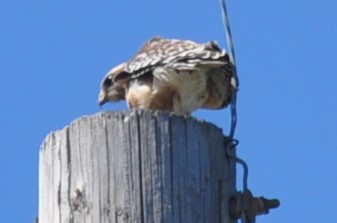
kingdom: Animalia
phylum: Chordata
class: Aves
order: Accipitriformes
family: Accipitridae
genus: Buteo
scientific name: Buteo lineatus
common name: Red-shouldered hawk
